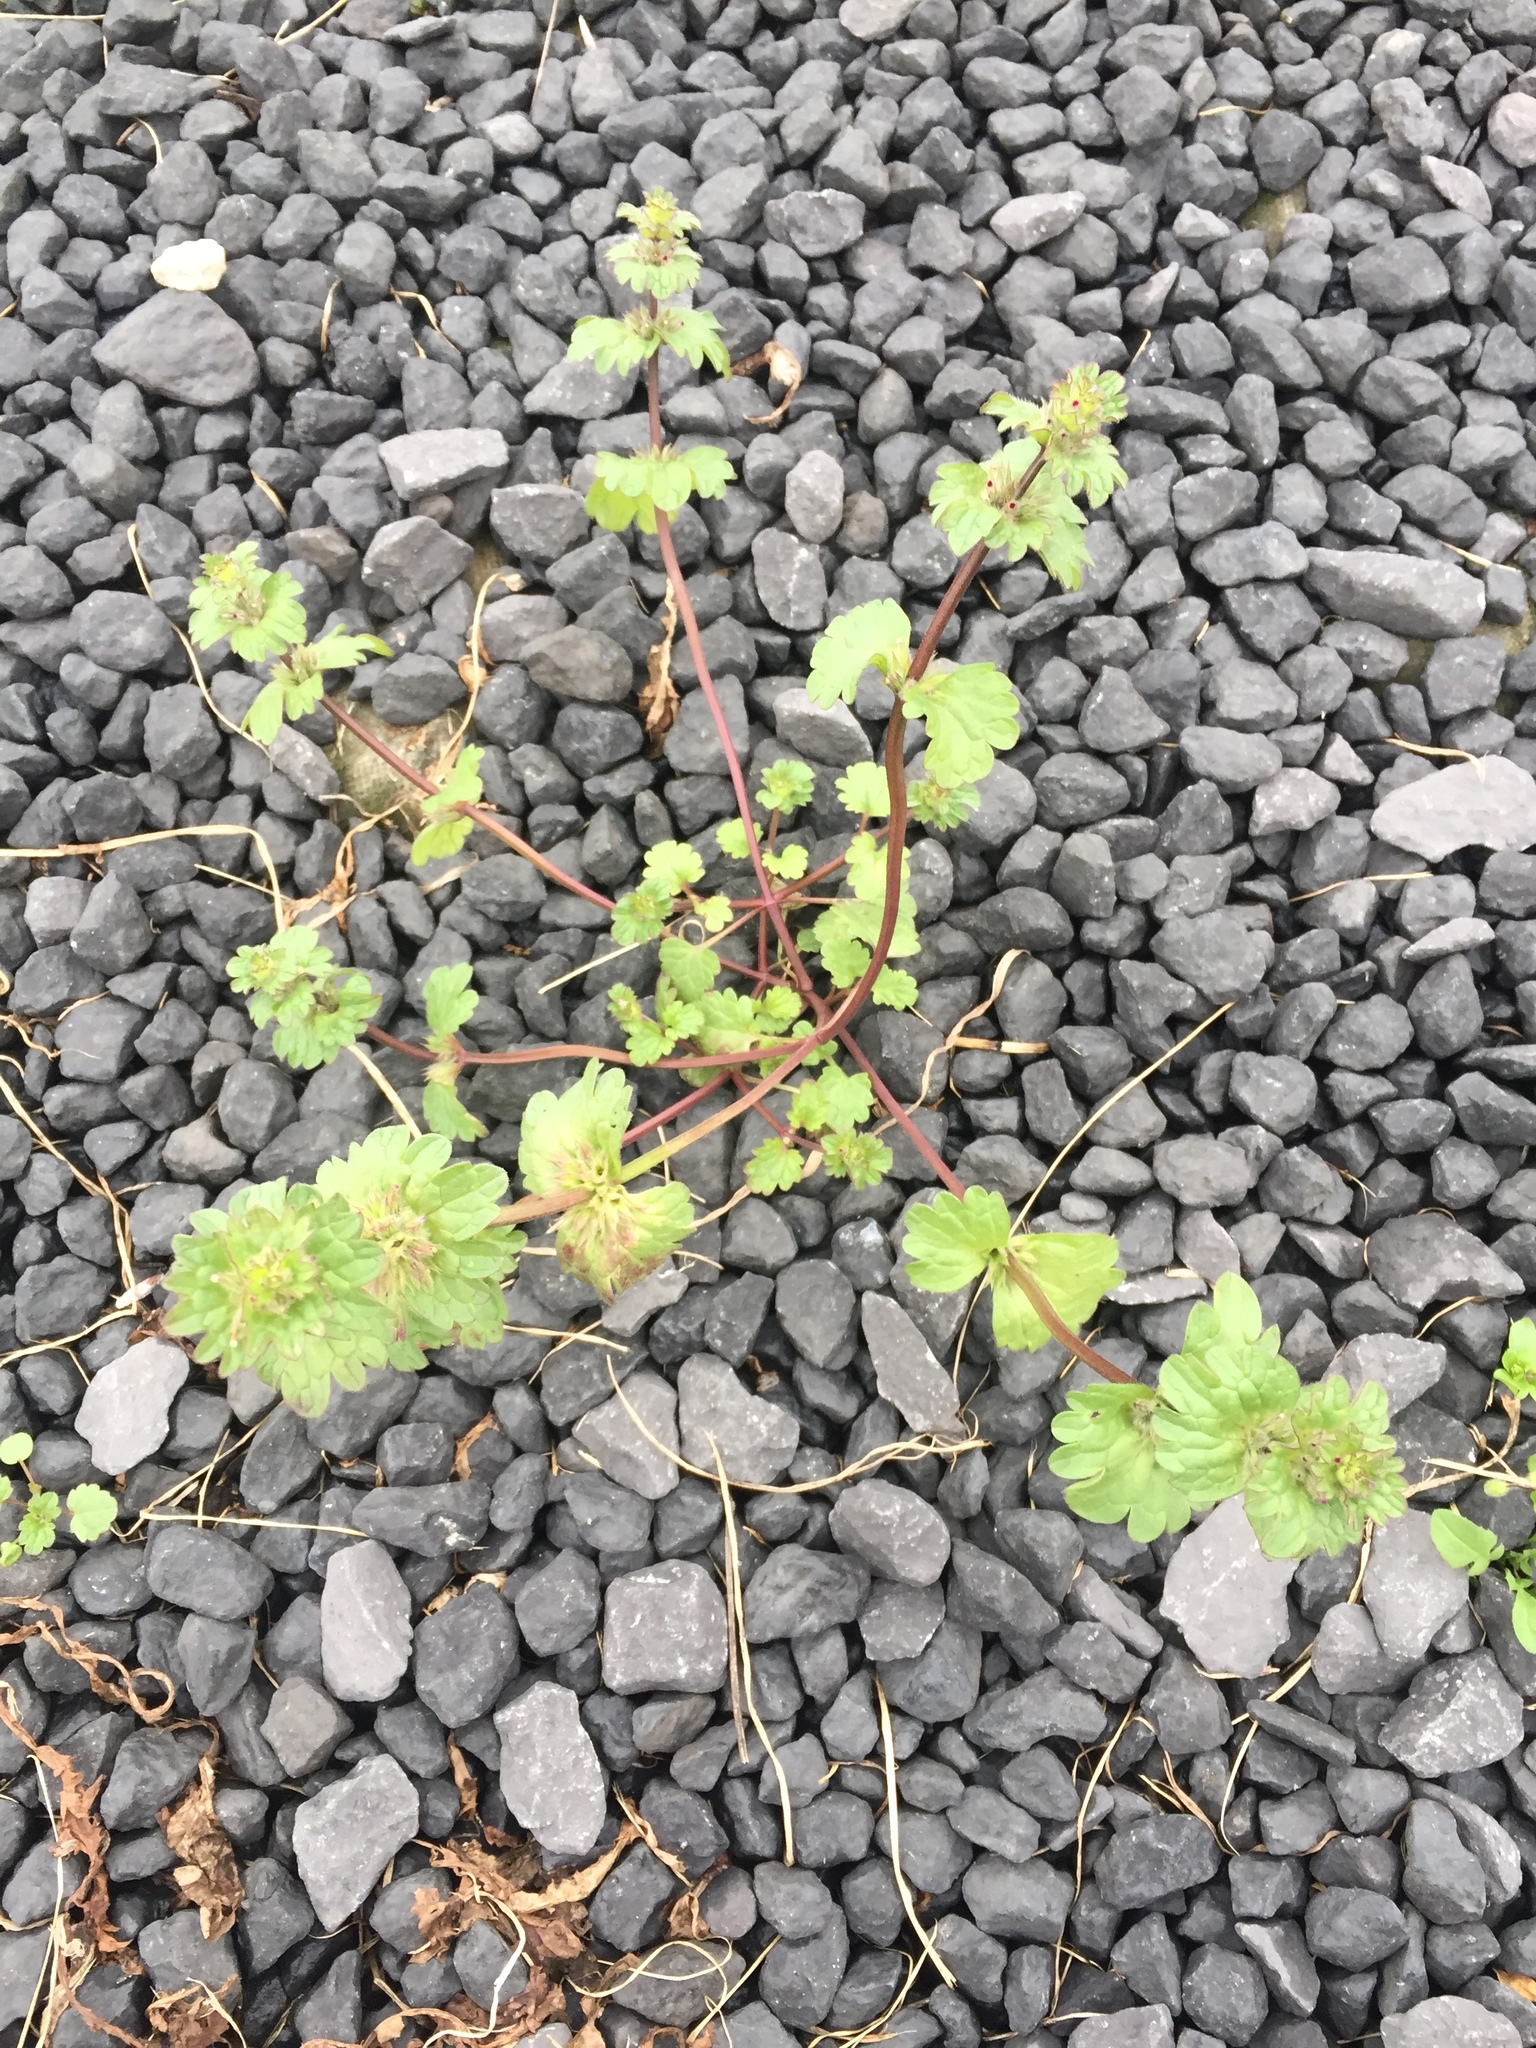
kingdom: Plantae
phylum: Tracheophyta
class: Magnoliopsida
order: Lamiales
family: Lamiaceae
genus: Lamium
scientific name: Lamium amplexicaule
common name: Henbit dead-nettle
